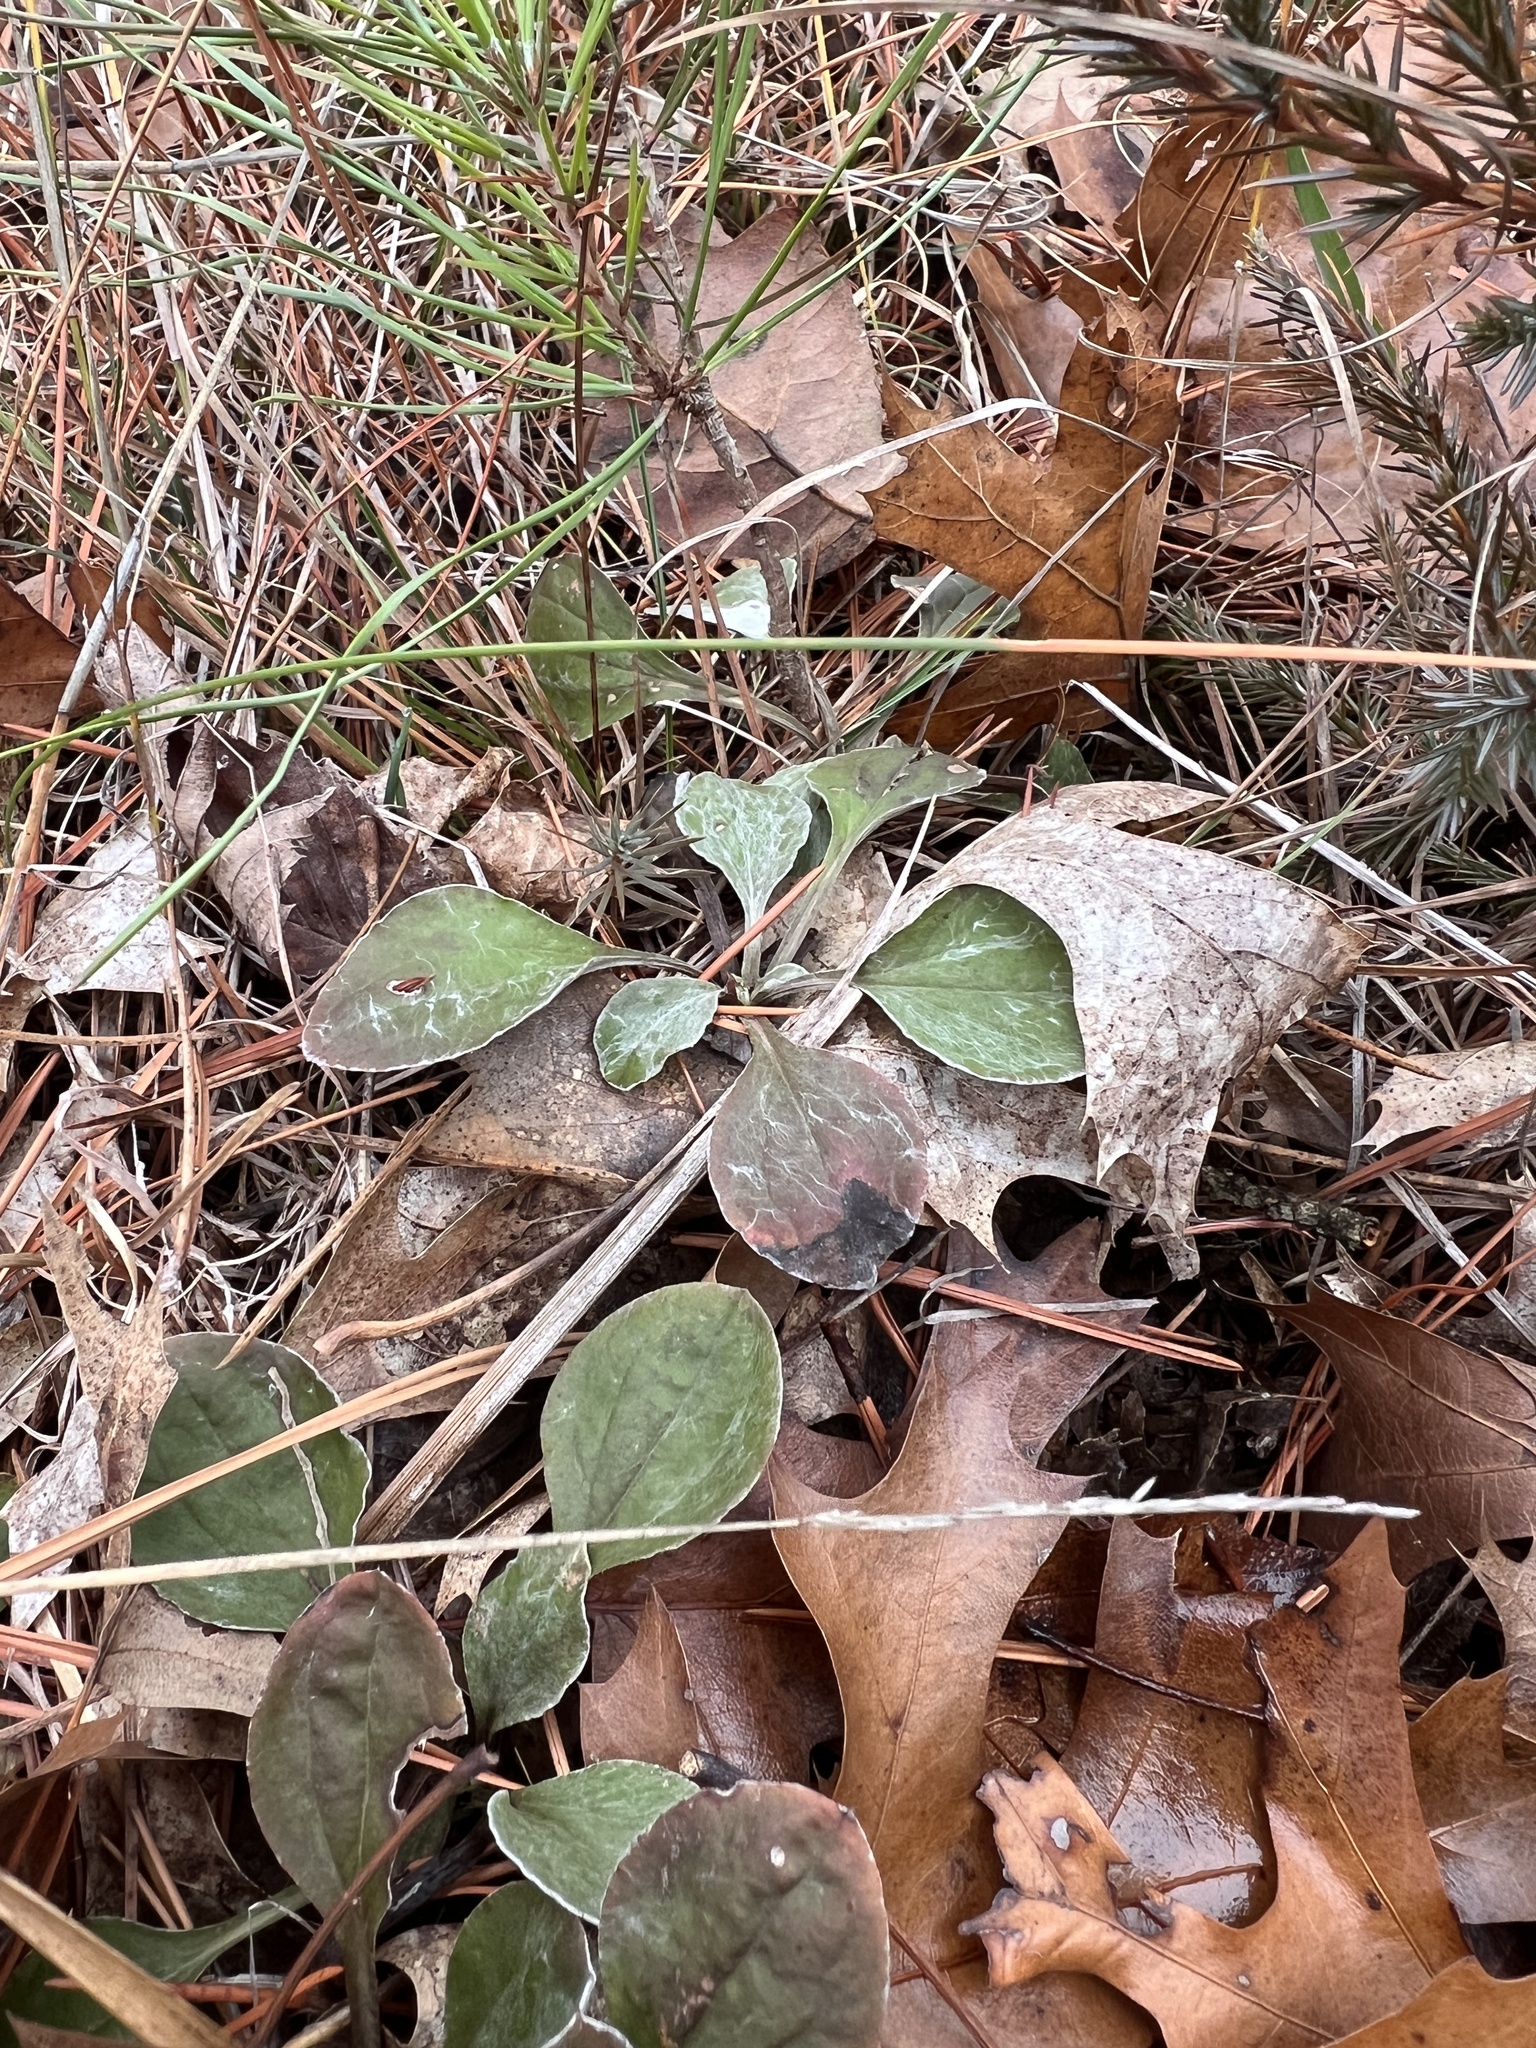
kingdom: Plantae
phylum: Tracheophyta
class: Magnoliopsida
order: Asterales
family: Asteraceae
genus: Antennaria
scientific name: Antennaria parlinii
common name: Parlin's pussytoes
